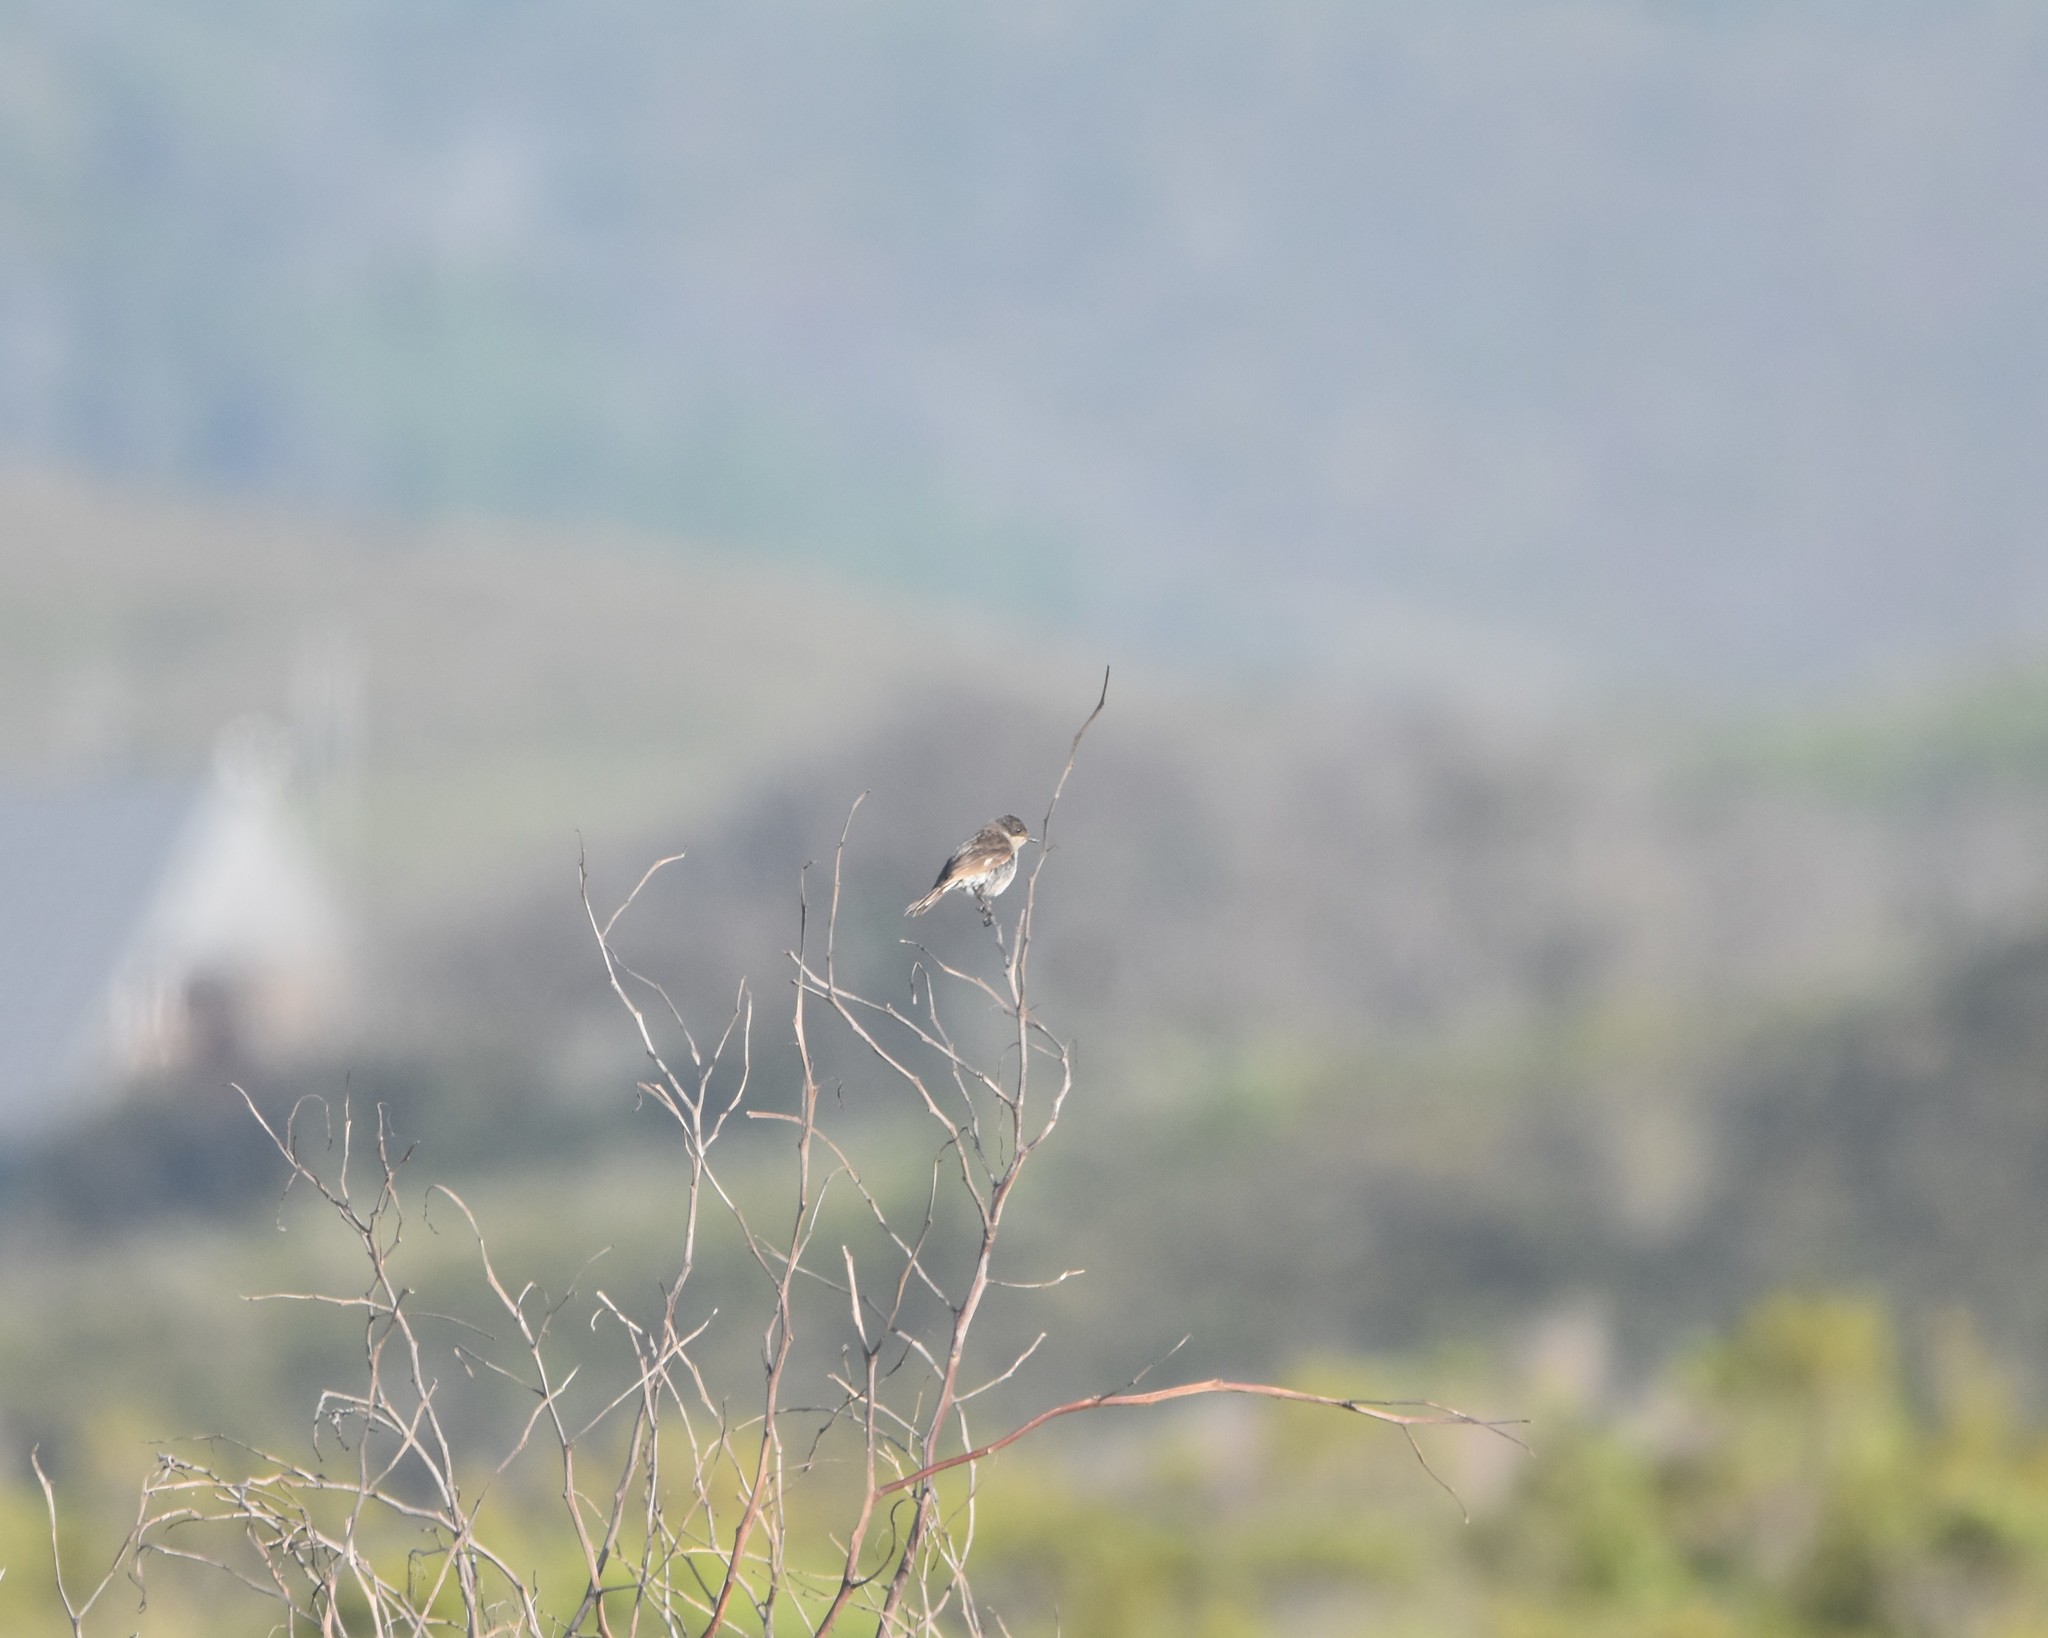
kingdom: Animalia
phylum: Chordata
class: Aves
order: Passeriformes
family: Muscicapidae
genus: Sigelus
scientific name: Sigelus silens
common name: Fiscal flycatcher
